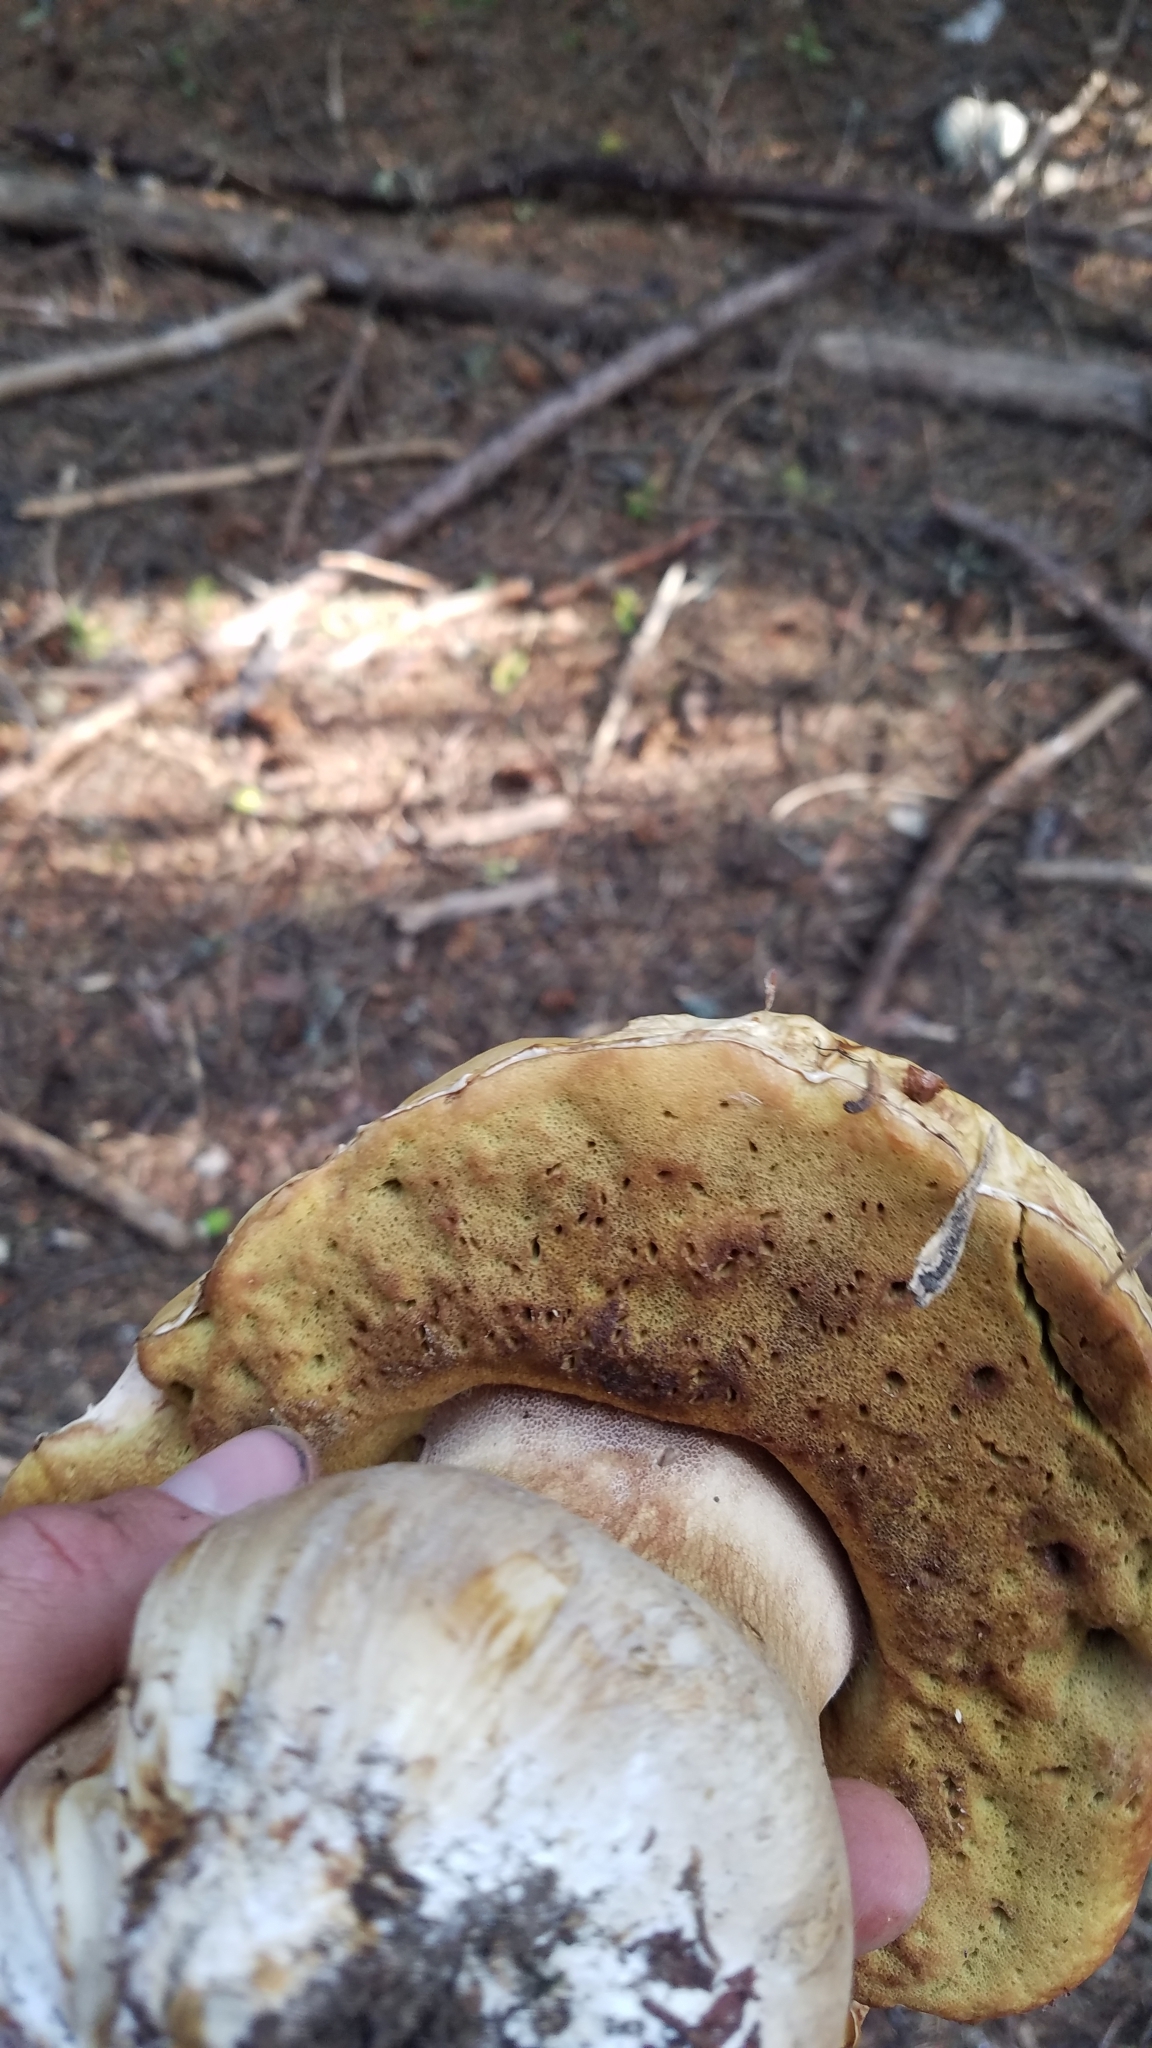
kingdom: Fungi
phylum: Basidiomycota
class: Agaricomycetes
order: Boletales
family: Boletaceae
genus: Boletus
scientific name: Boletus edulis
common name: Cep
